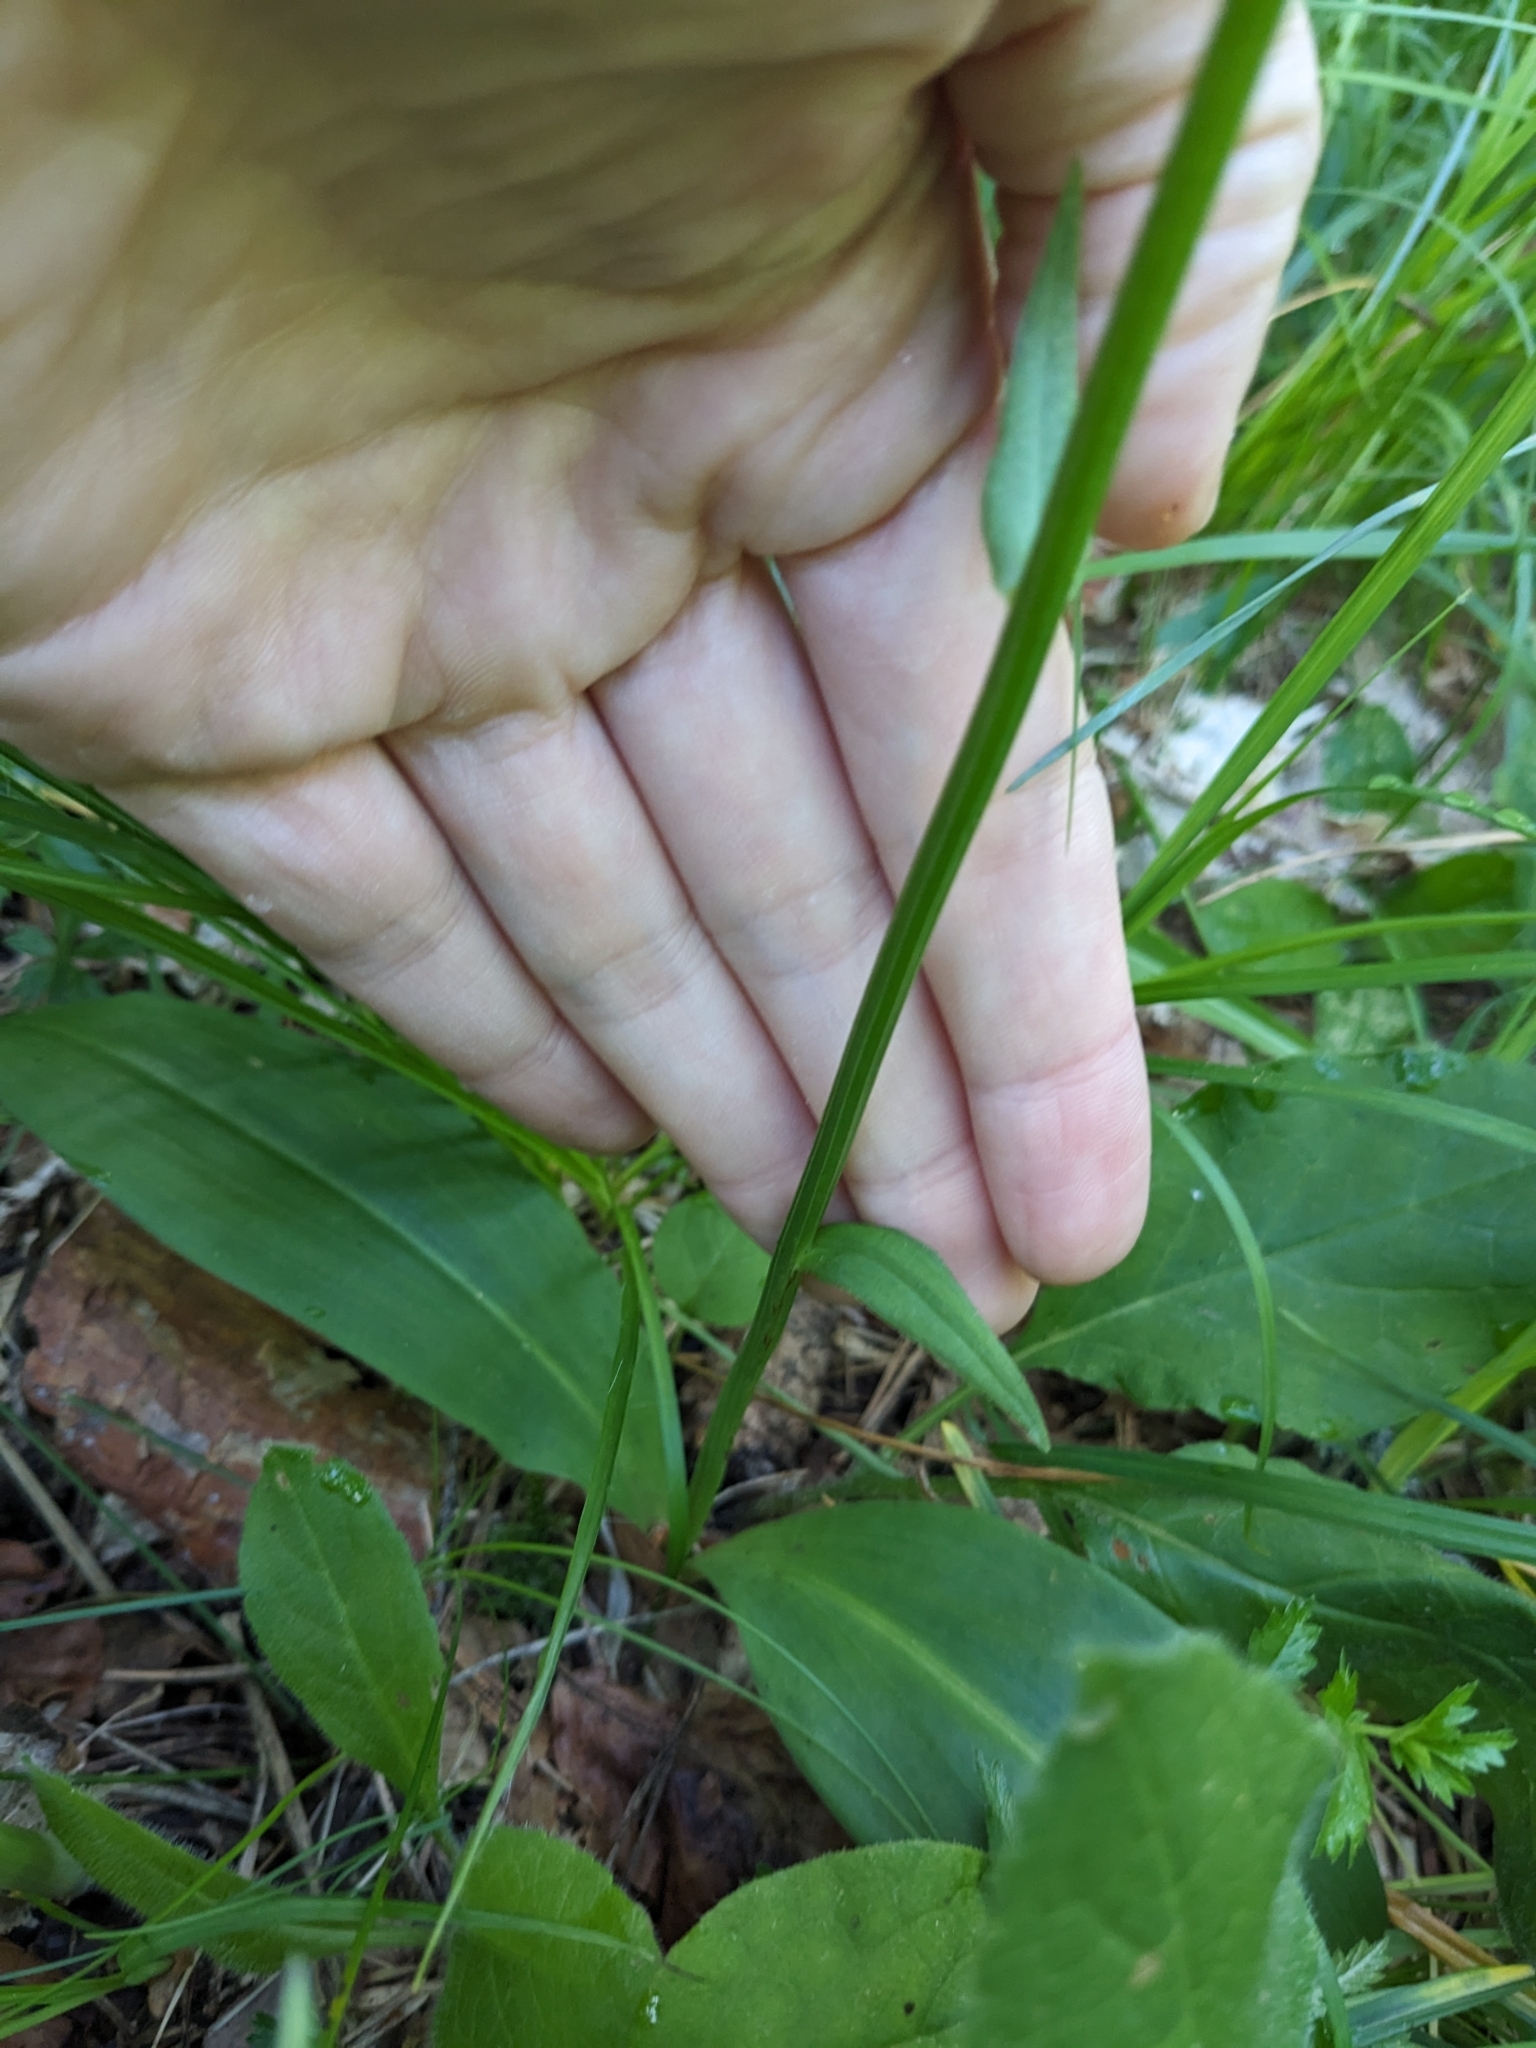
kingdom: Plantae
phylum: Tracheophyta
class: Liliopsida
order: Asparagales
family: Orchidaceae
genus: Platanthera
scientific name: Platanthera chlorantha
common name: Greater butterfly-orchid
